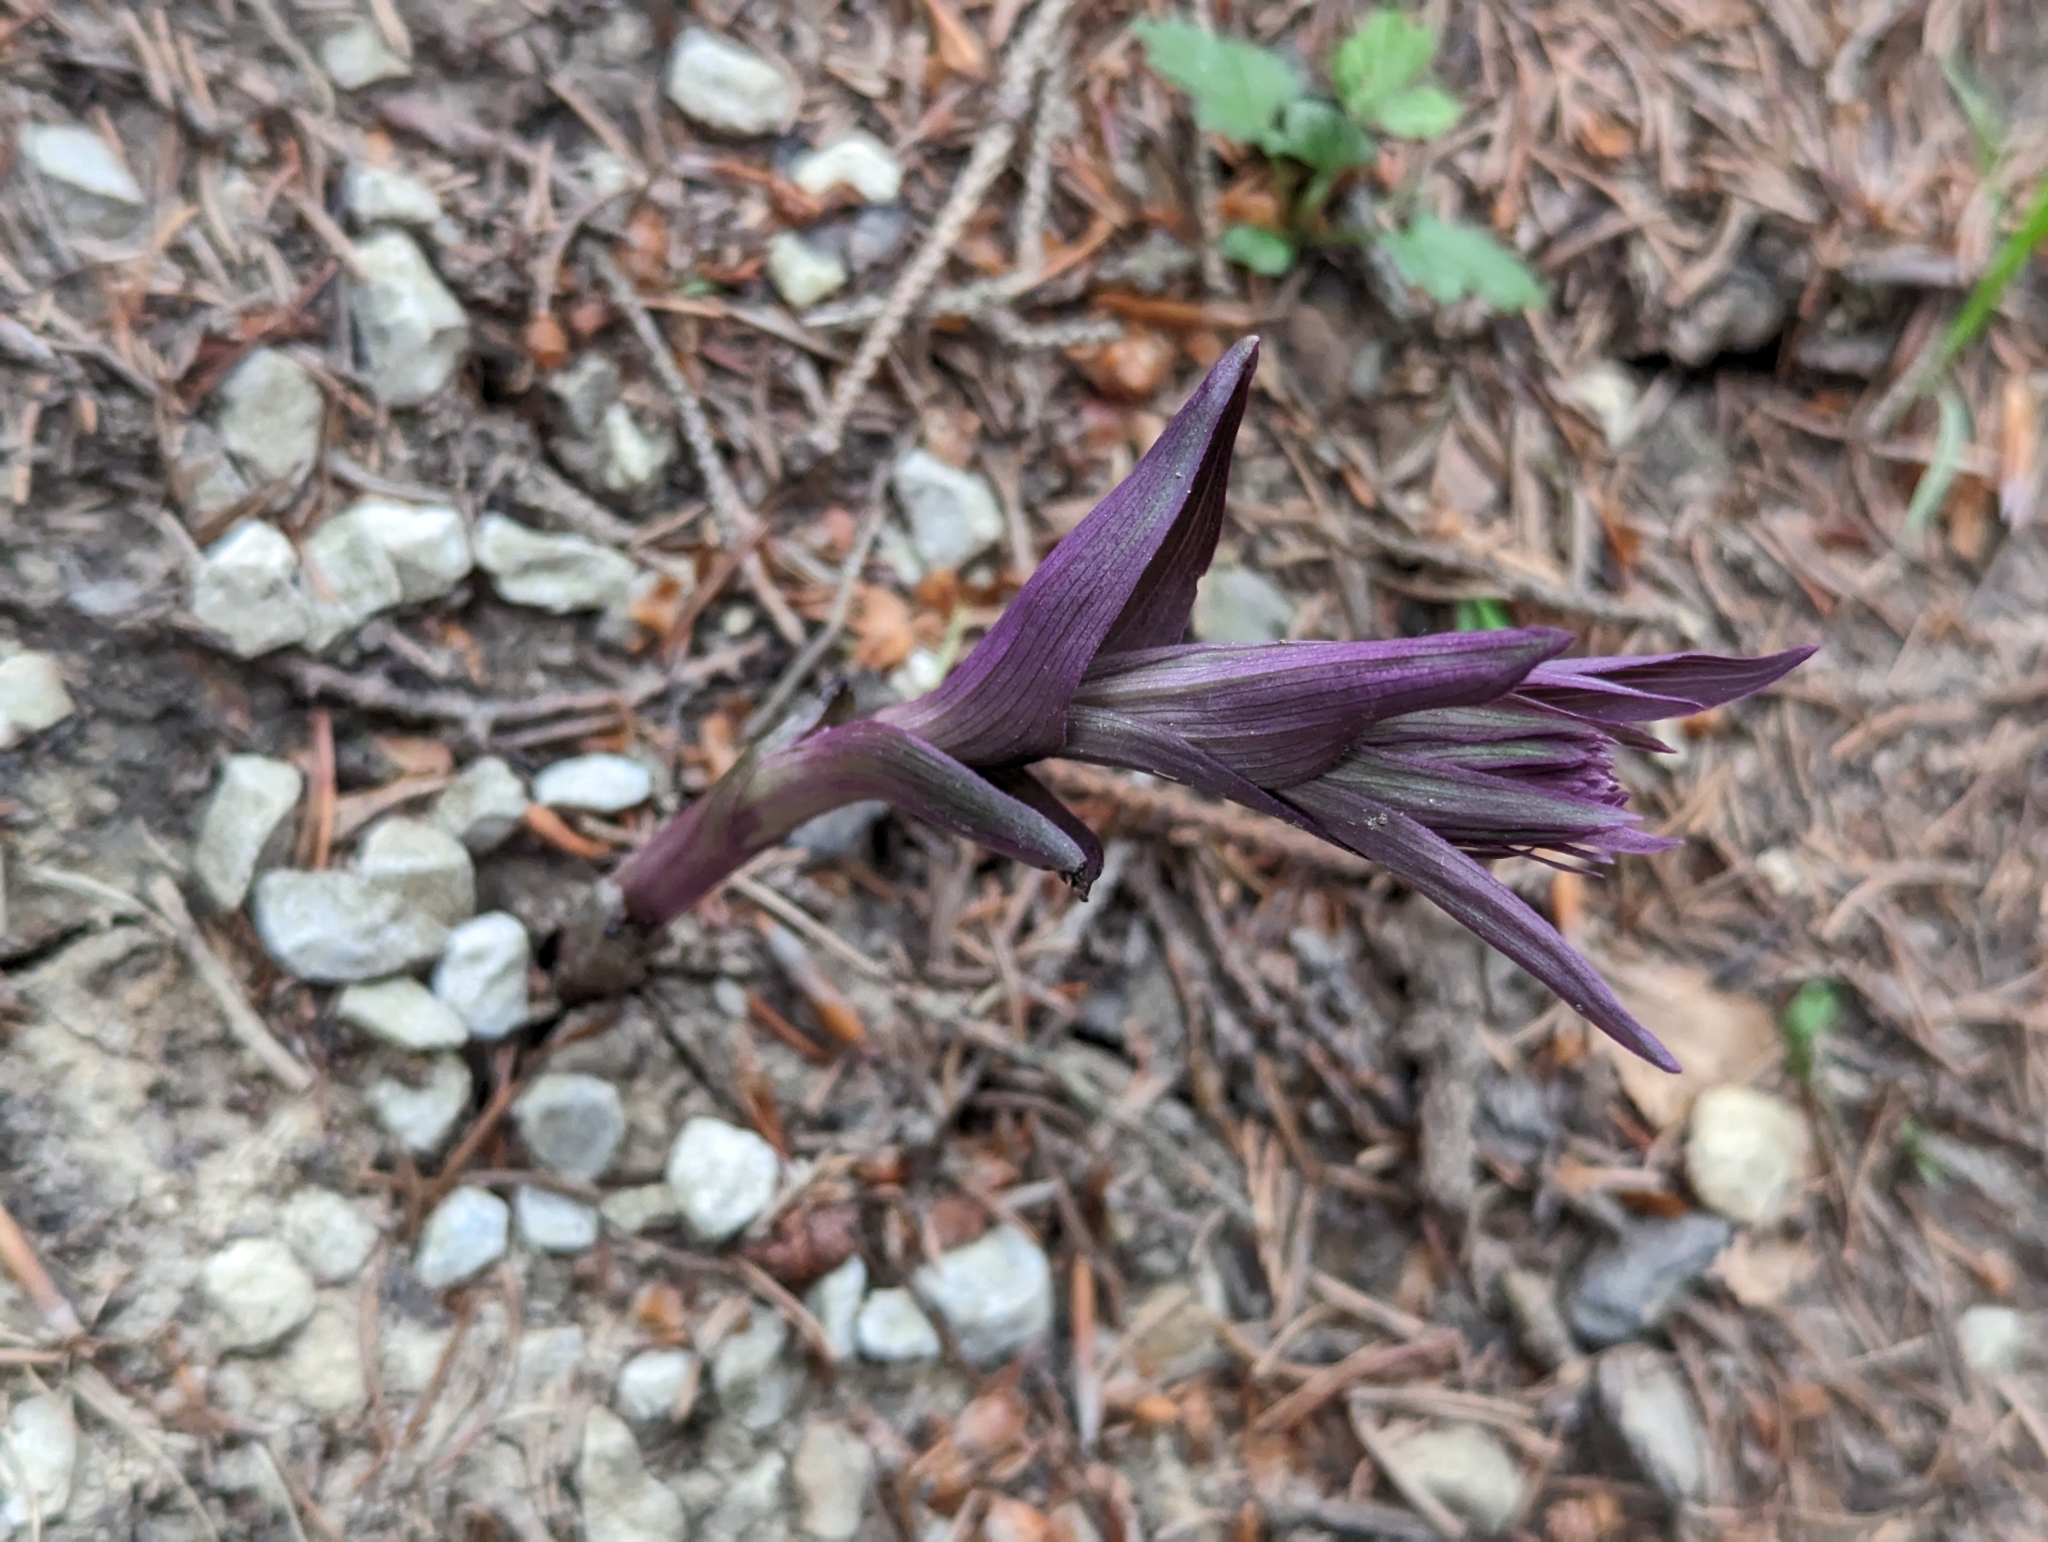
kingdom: Plantae
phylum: Tracheophyta
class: Liliopsida
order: Asparagales
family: Orchidaceae
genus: Epipactis
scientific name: Epipactis purpurata
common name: Violet helleborine
